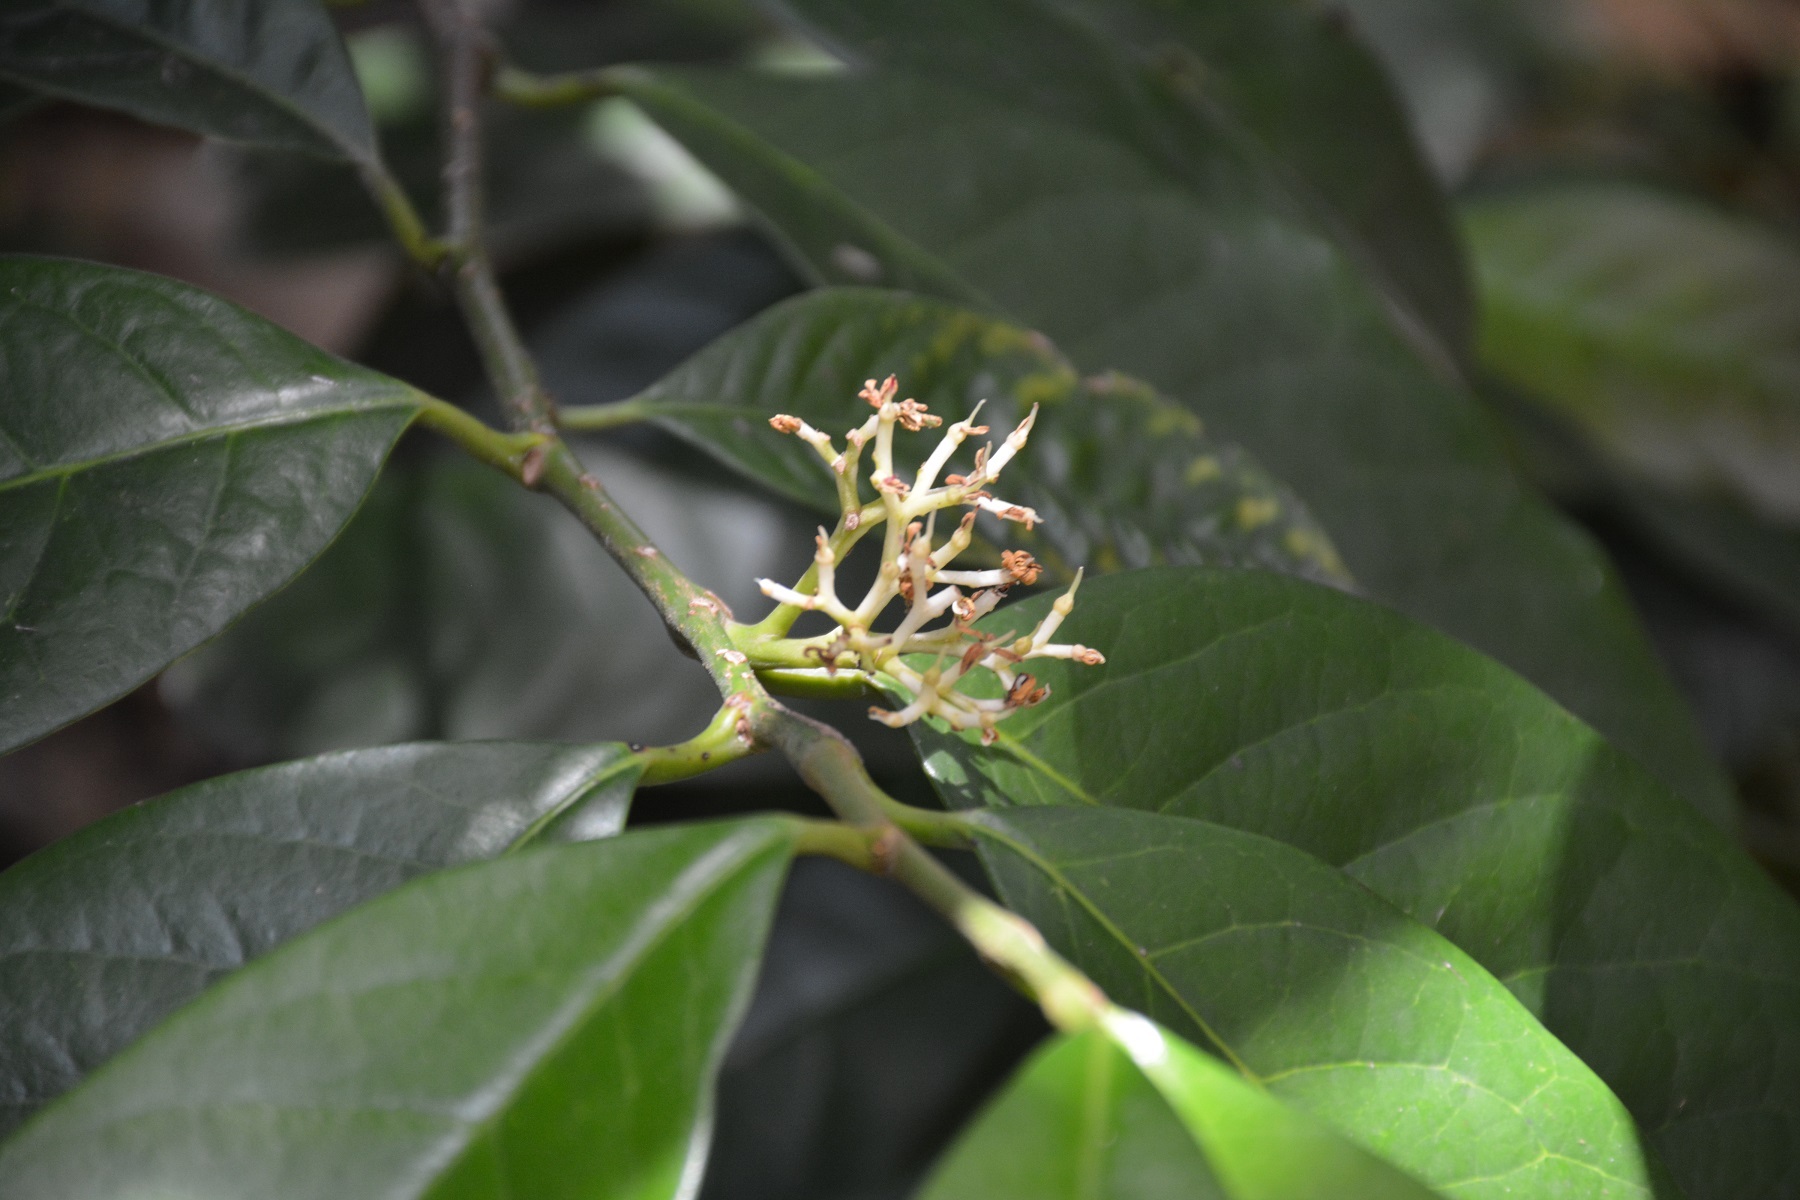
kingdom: Plantae
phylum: Tracheophyta
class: Magnoliopsida
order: Metteniusales
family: Metteniusaceae
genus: Oecopetalum
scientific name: Oecopetalum mexicanum
